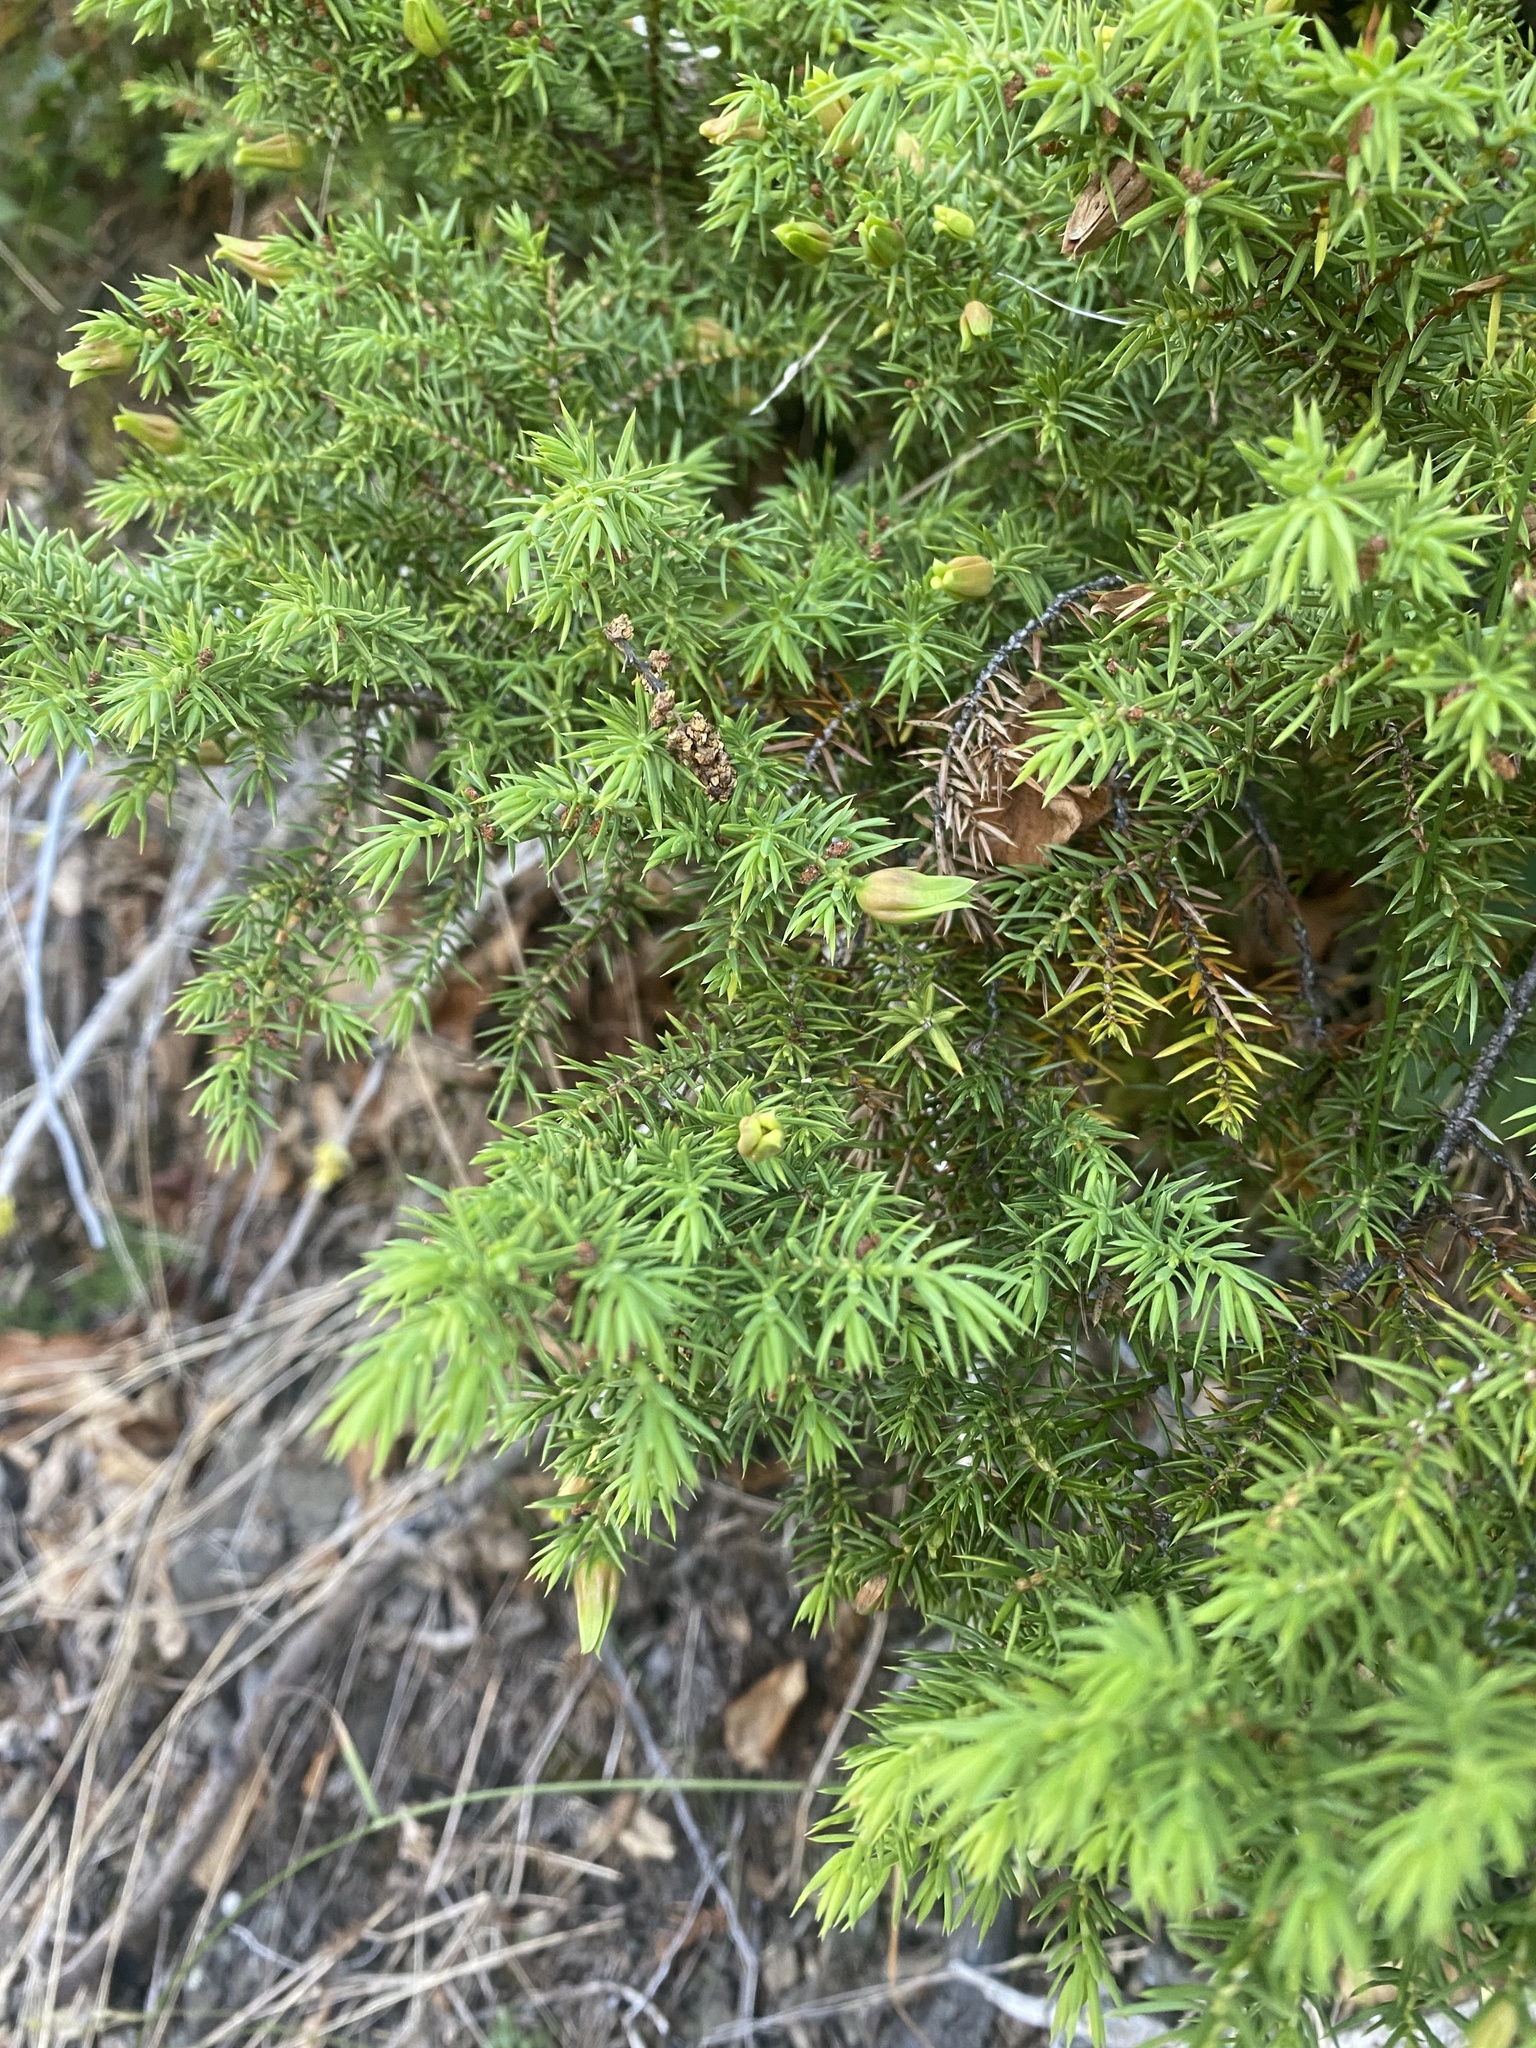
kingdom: Plantae
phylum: Tracheophyta
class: Pinopsida
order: Pinales
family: Cupressaceae
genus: Juniperus
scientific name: Juniperus communis
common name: Common juniper
